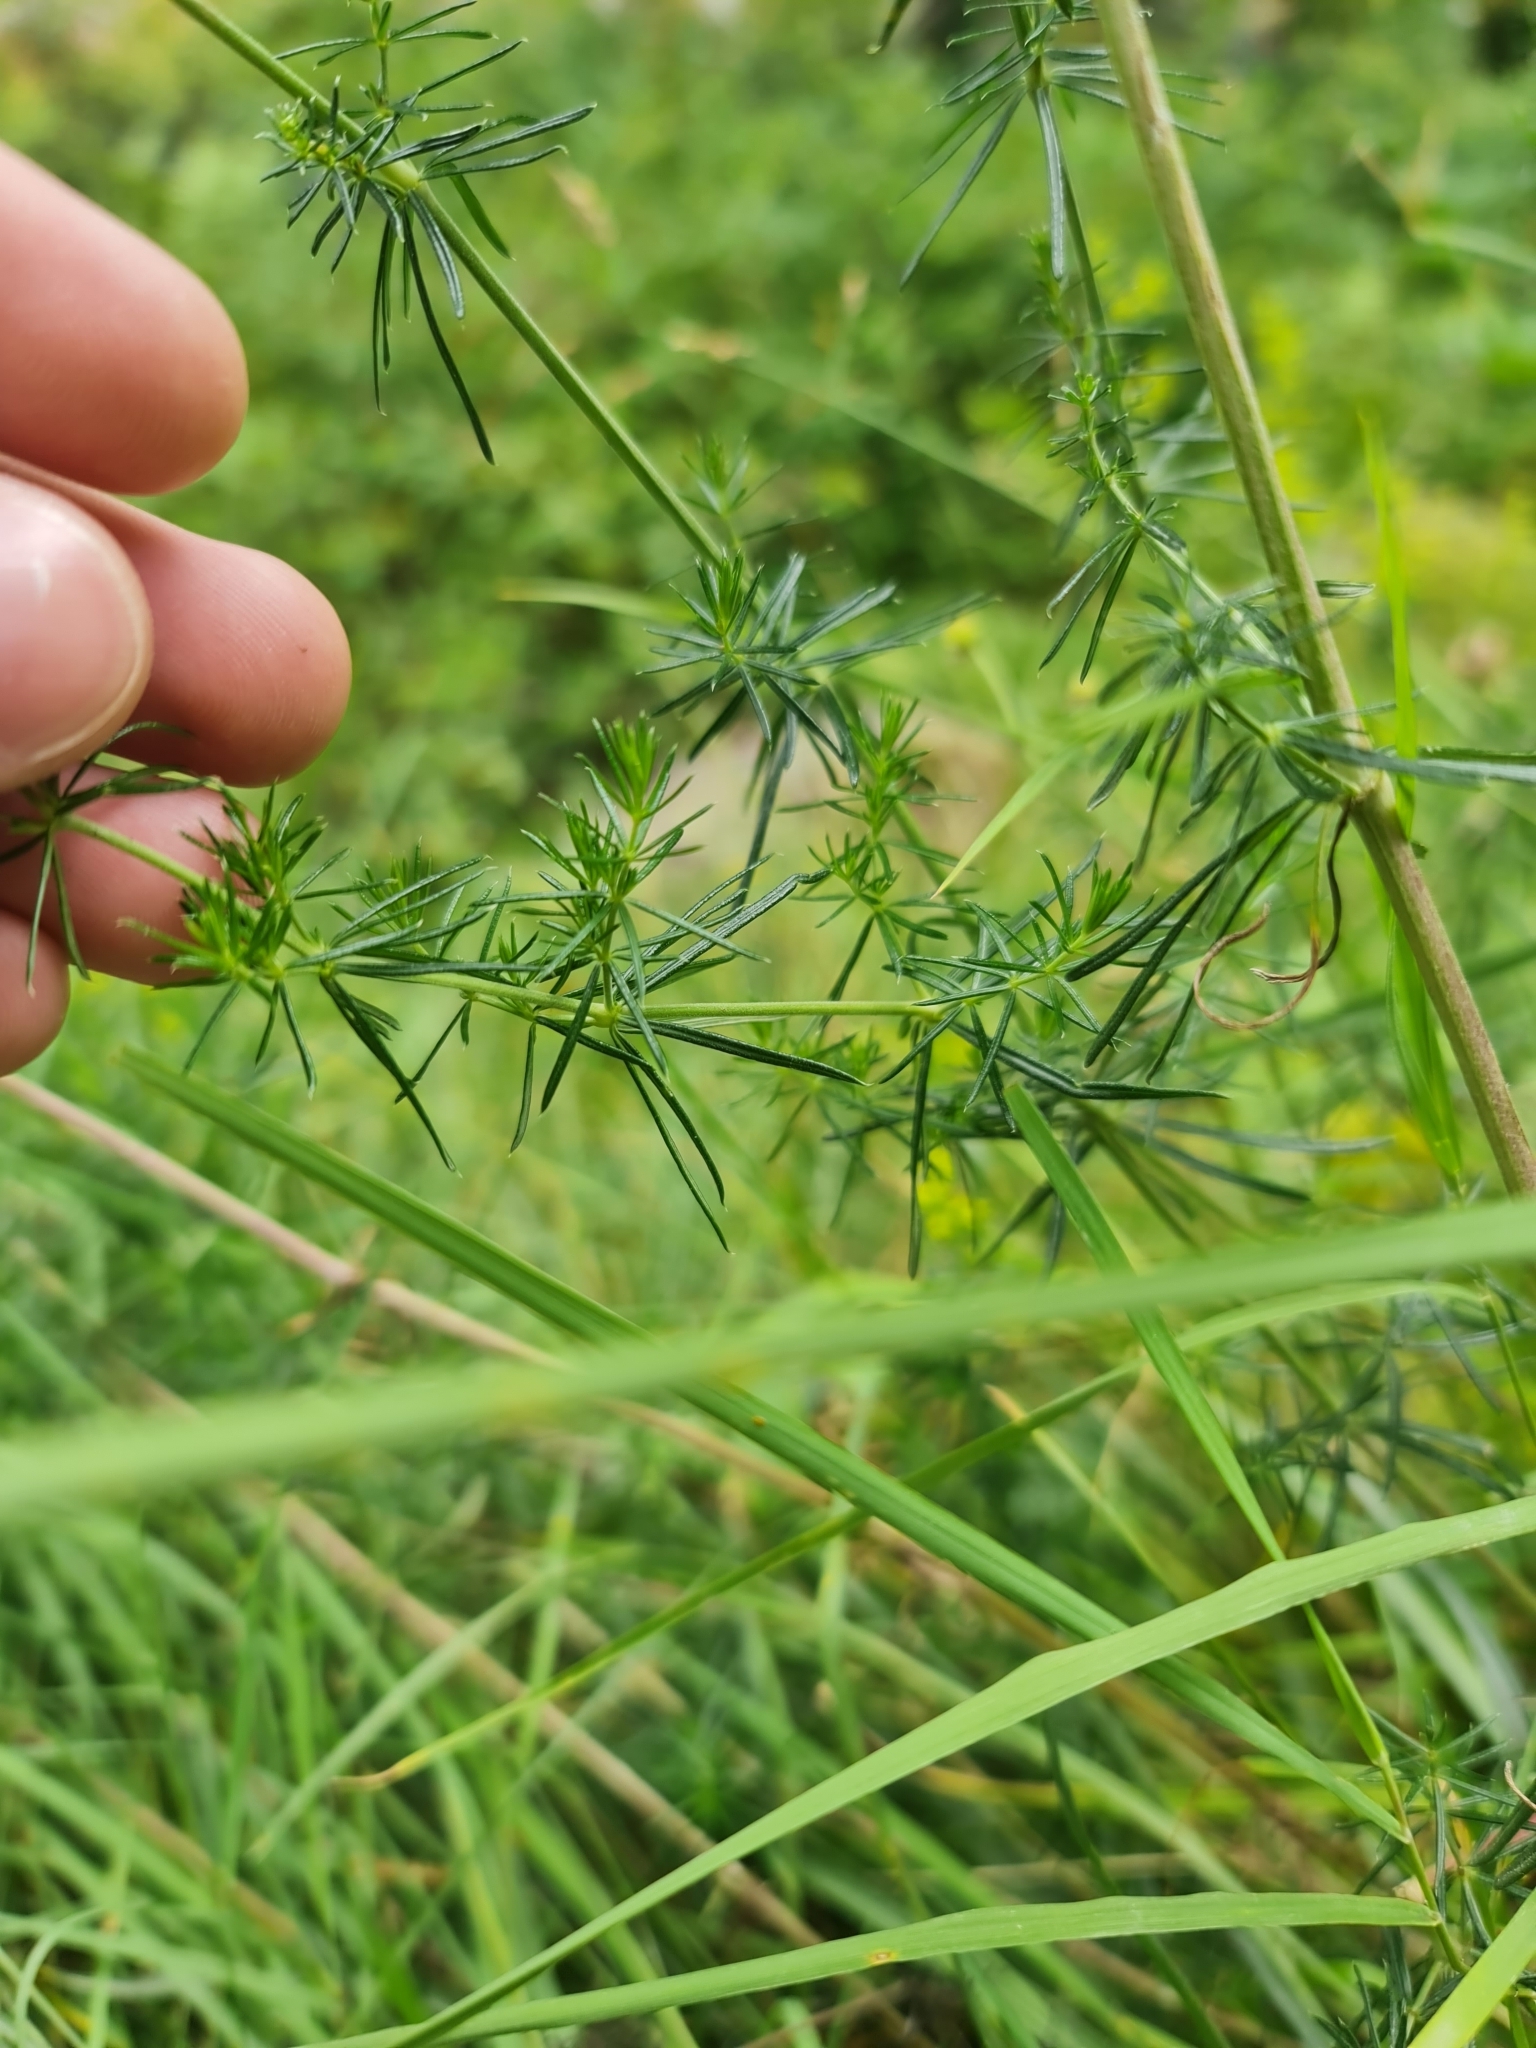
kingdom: Plantae
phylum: Tracheophyta
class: Magnoliopsida
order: Gentianales
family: Rubiaceae
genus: Galium
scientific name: Galium verum
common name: Lady's bedstraw
